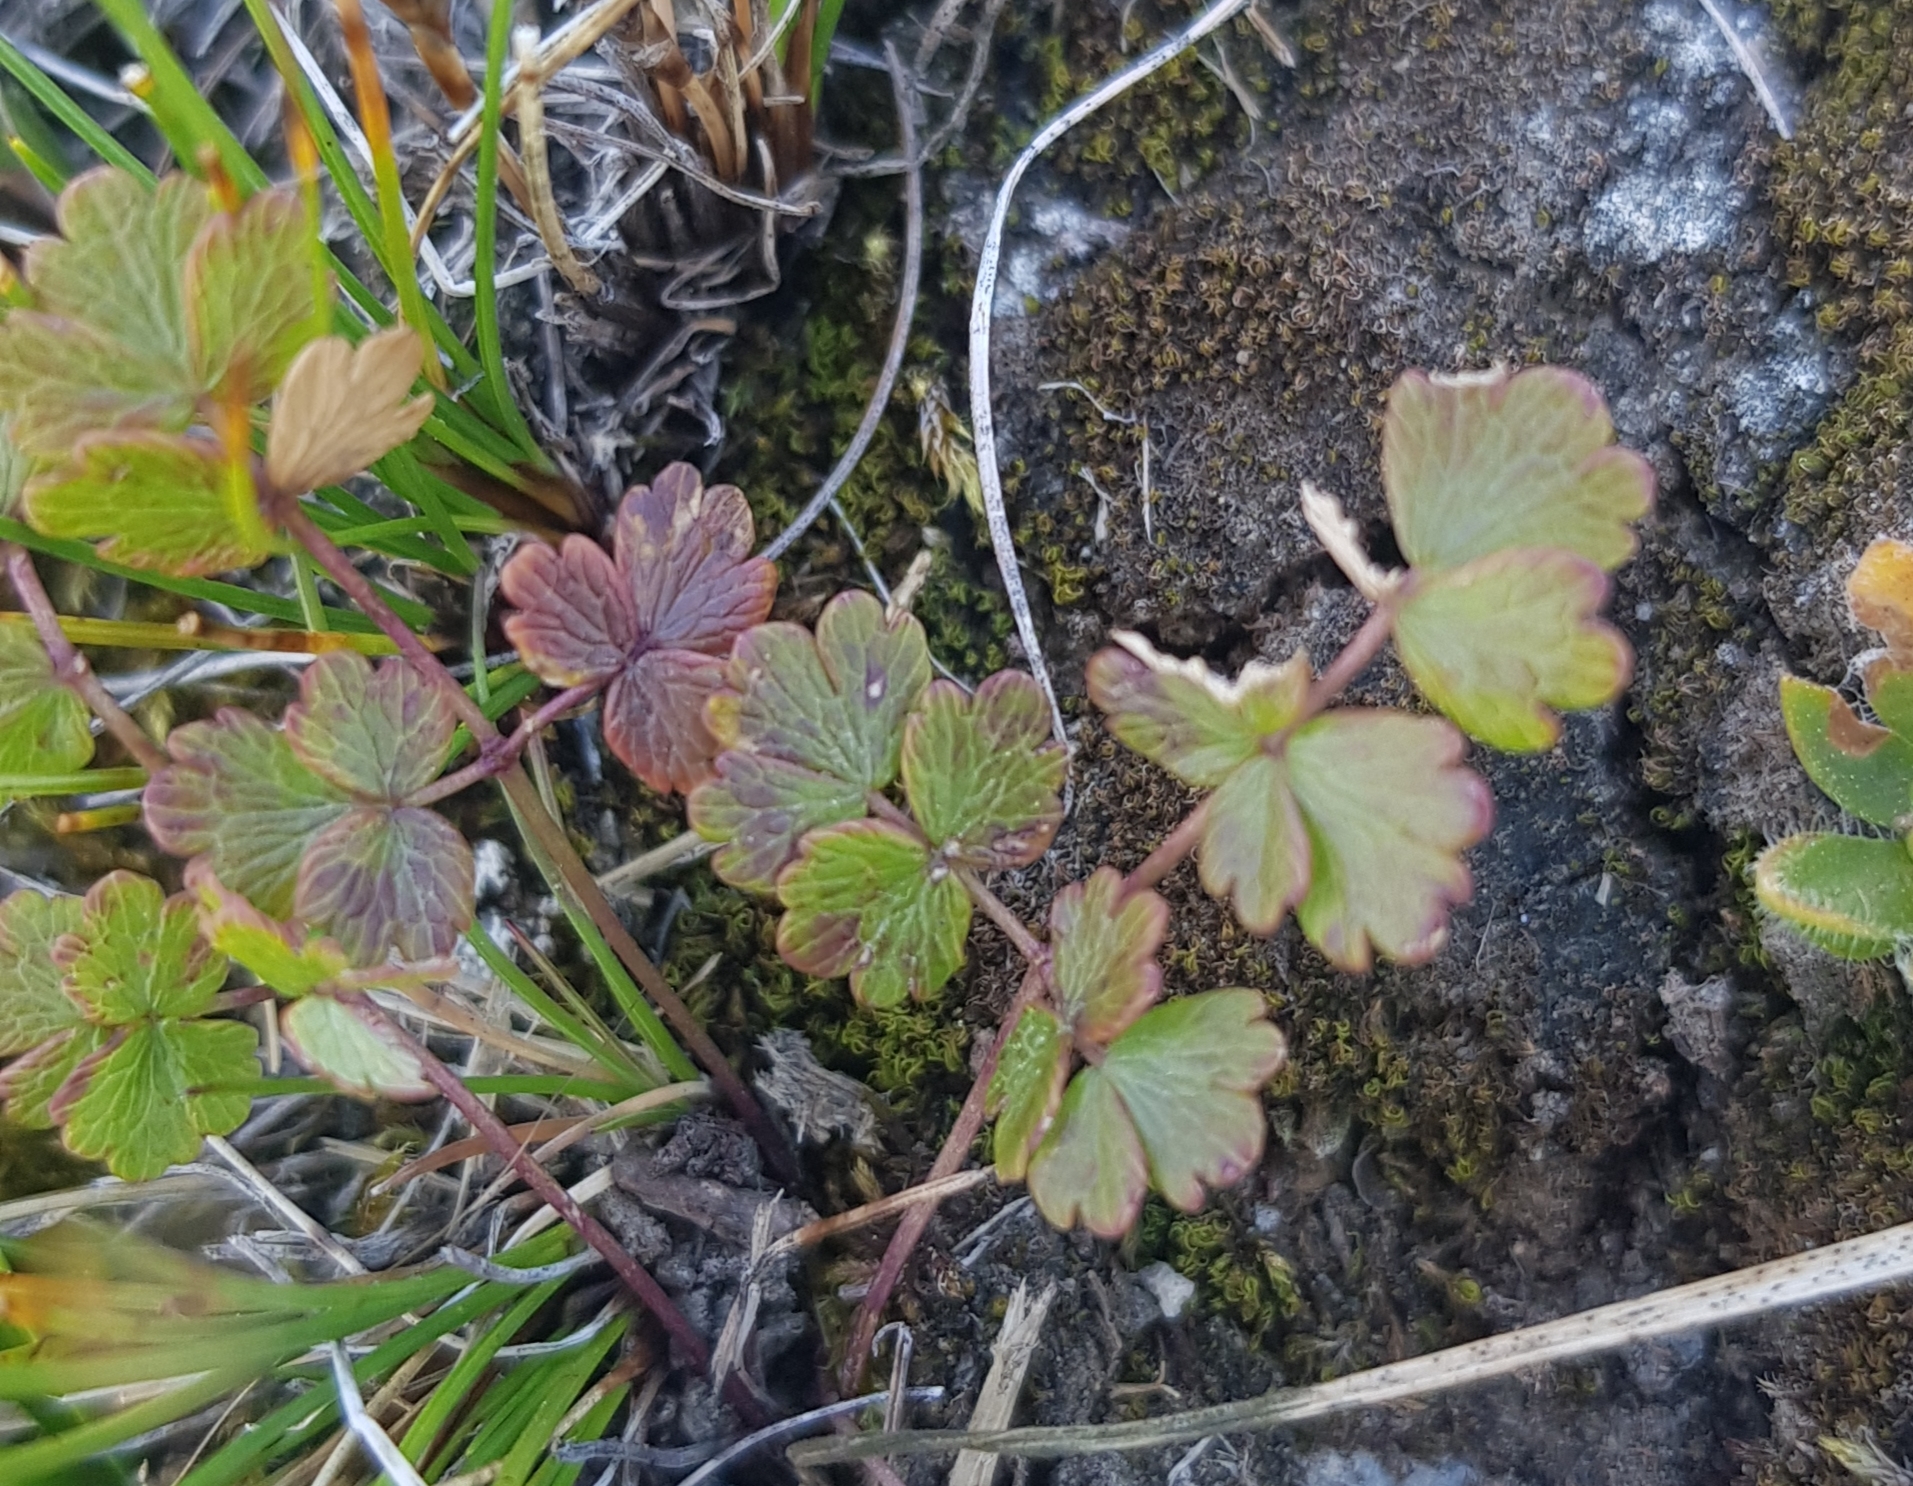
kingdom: Plantae
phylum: Tracheophyta
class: Magnoliopsida
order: Ranunculales
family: Ranunculaceae
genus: Thalictrum
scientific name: Thalictrum alpinum
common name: Alpine meadow-rue
